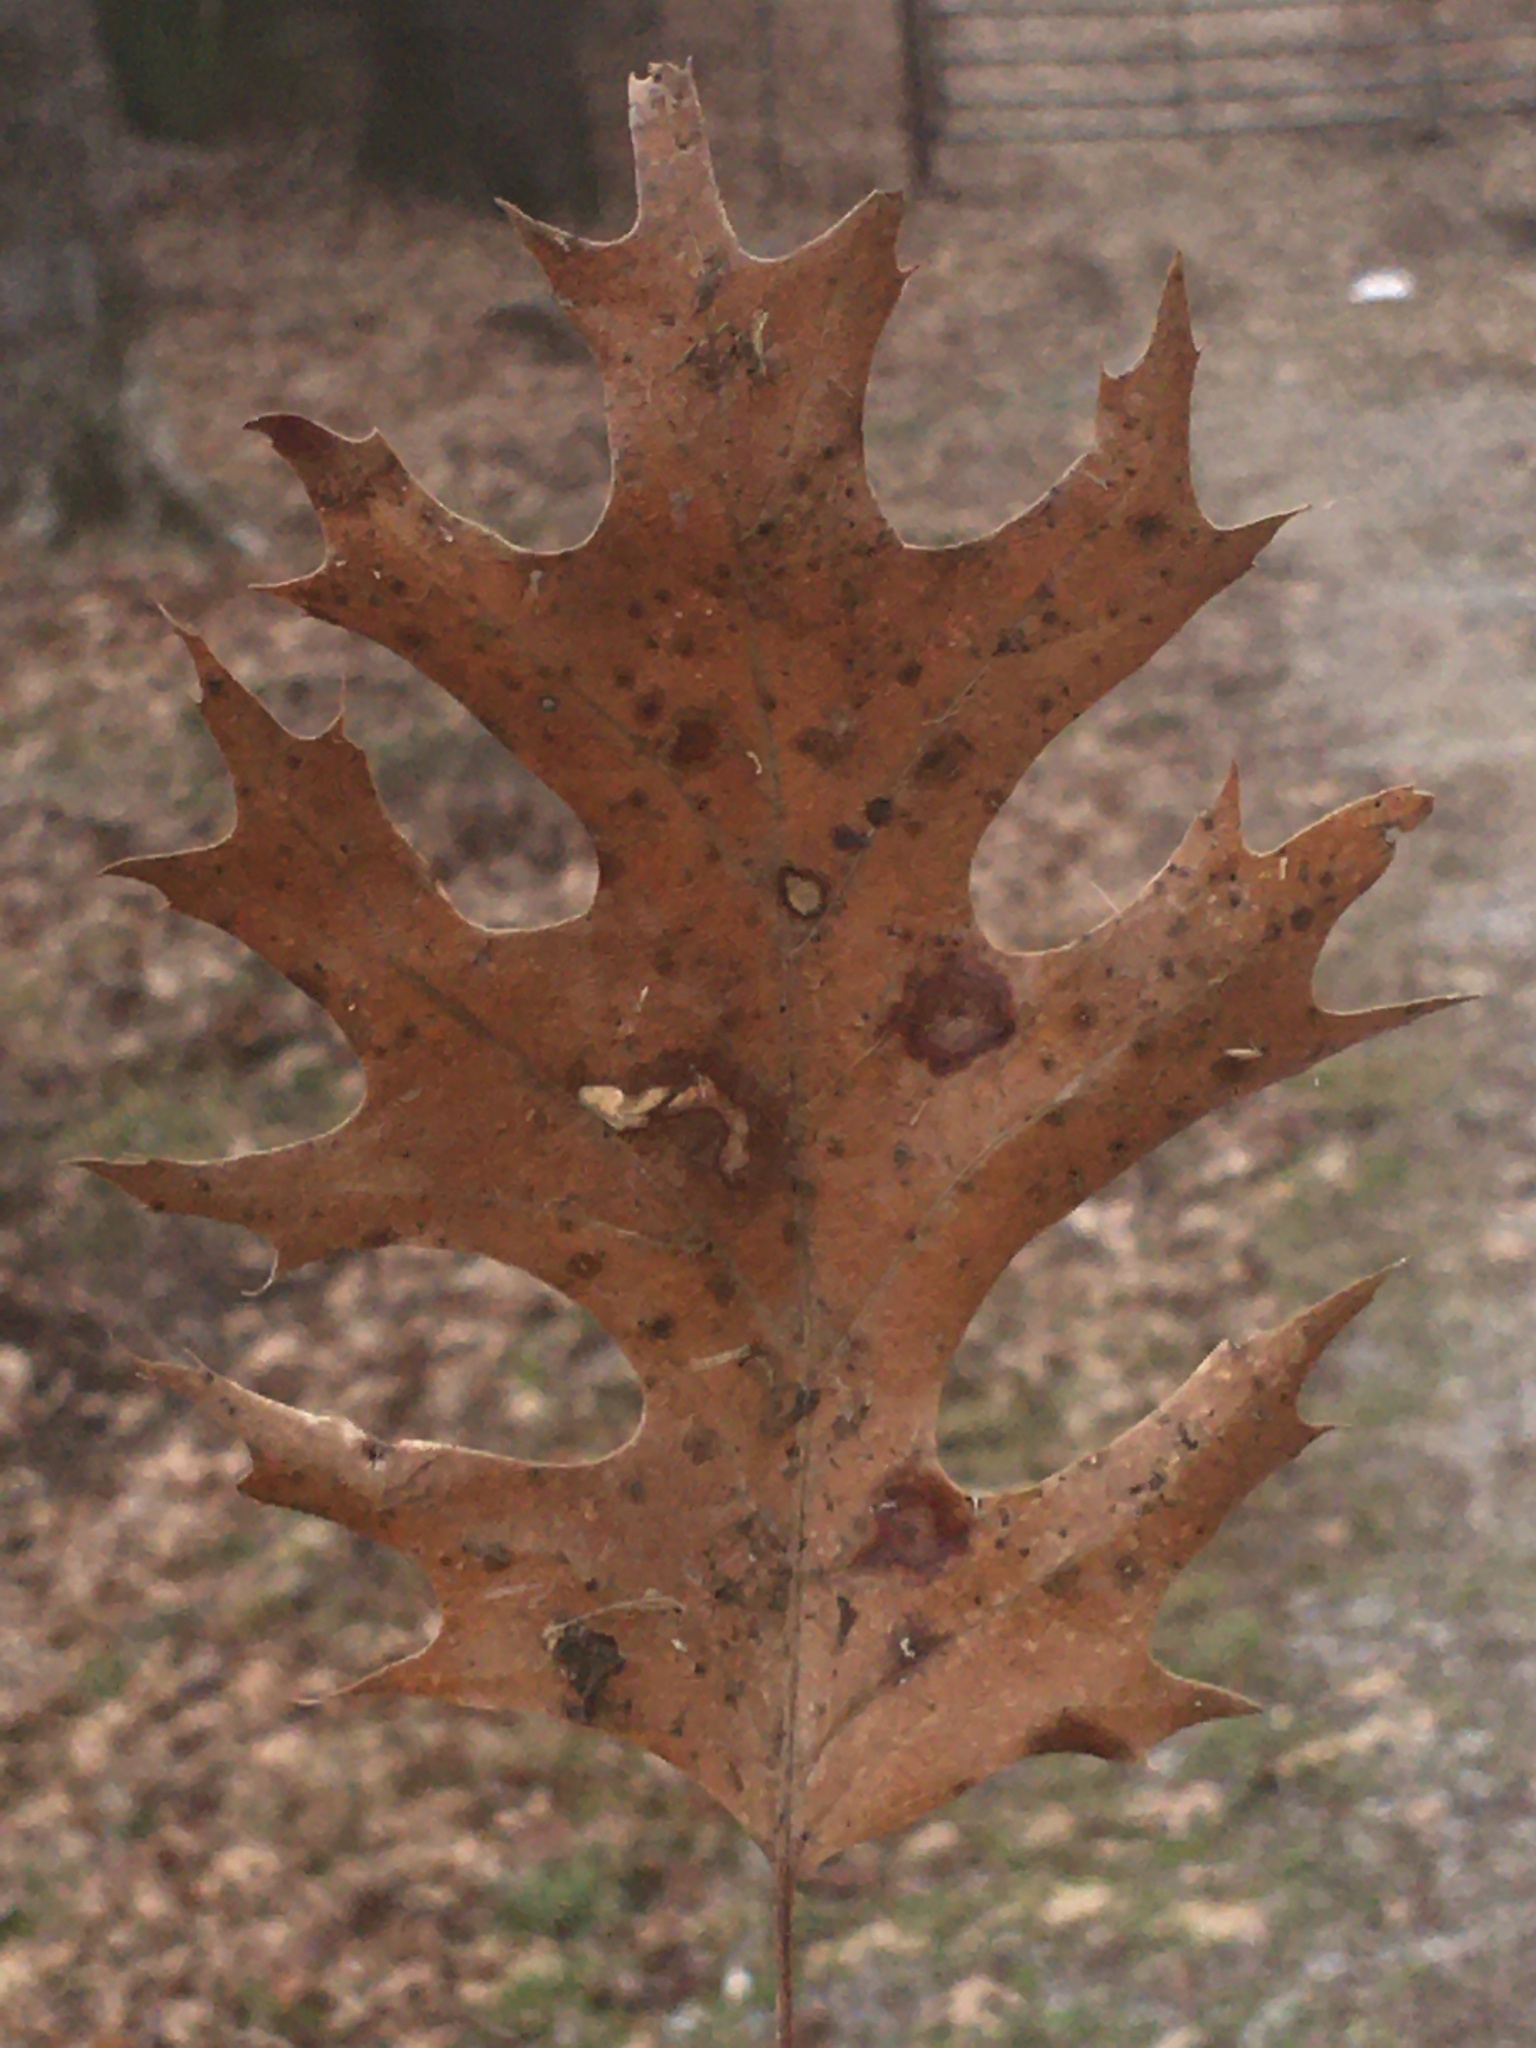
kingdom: Plantae
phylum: Tracheophyta
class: Magnoliopsida
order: Fagales
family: Fagaceae
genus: Quercus
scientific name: Quercus shumardii
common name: Shumard oak
